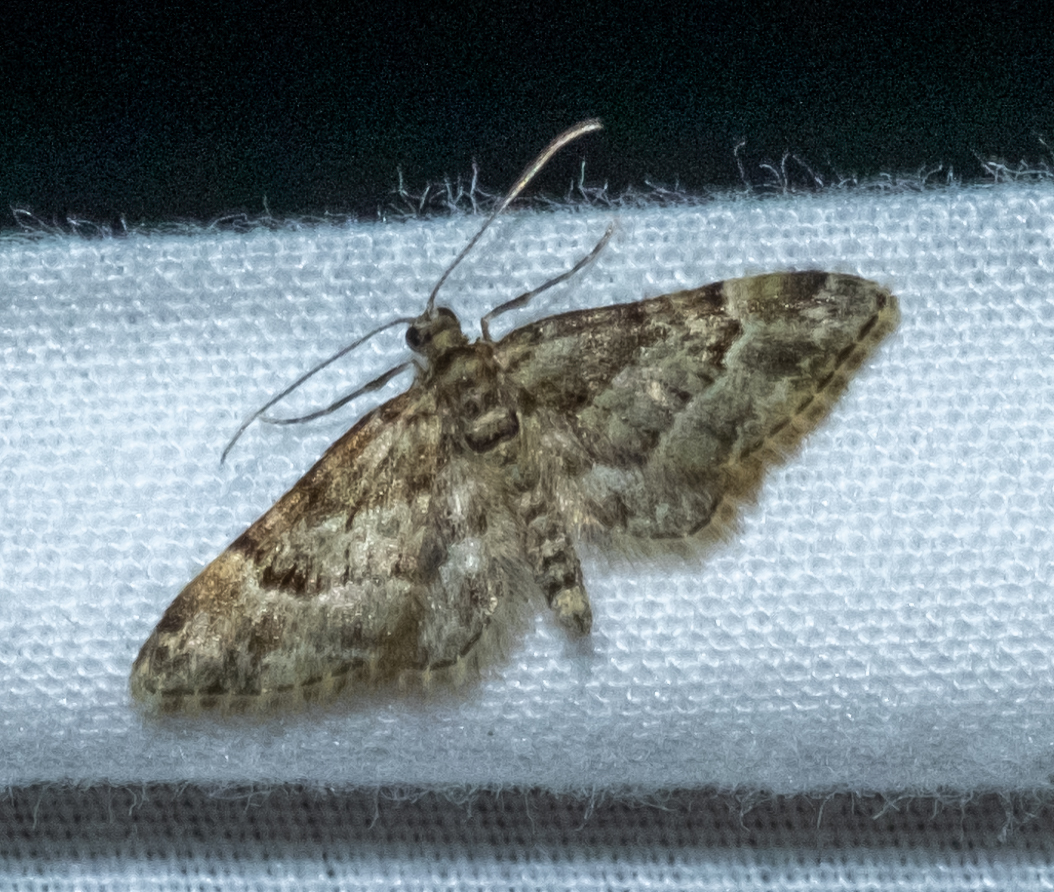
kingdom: Animalia
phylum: Arthropoda
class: Insecta
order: Lepidoptera
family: Geometridae
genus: Gymnoscelis
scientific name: Gymnoscelis rufifasciata
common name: Double-striped pug
